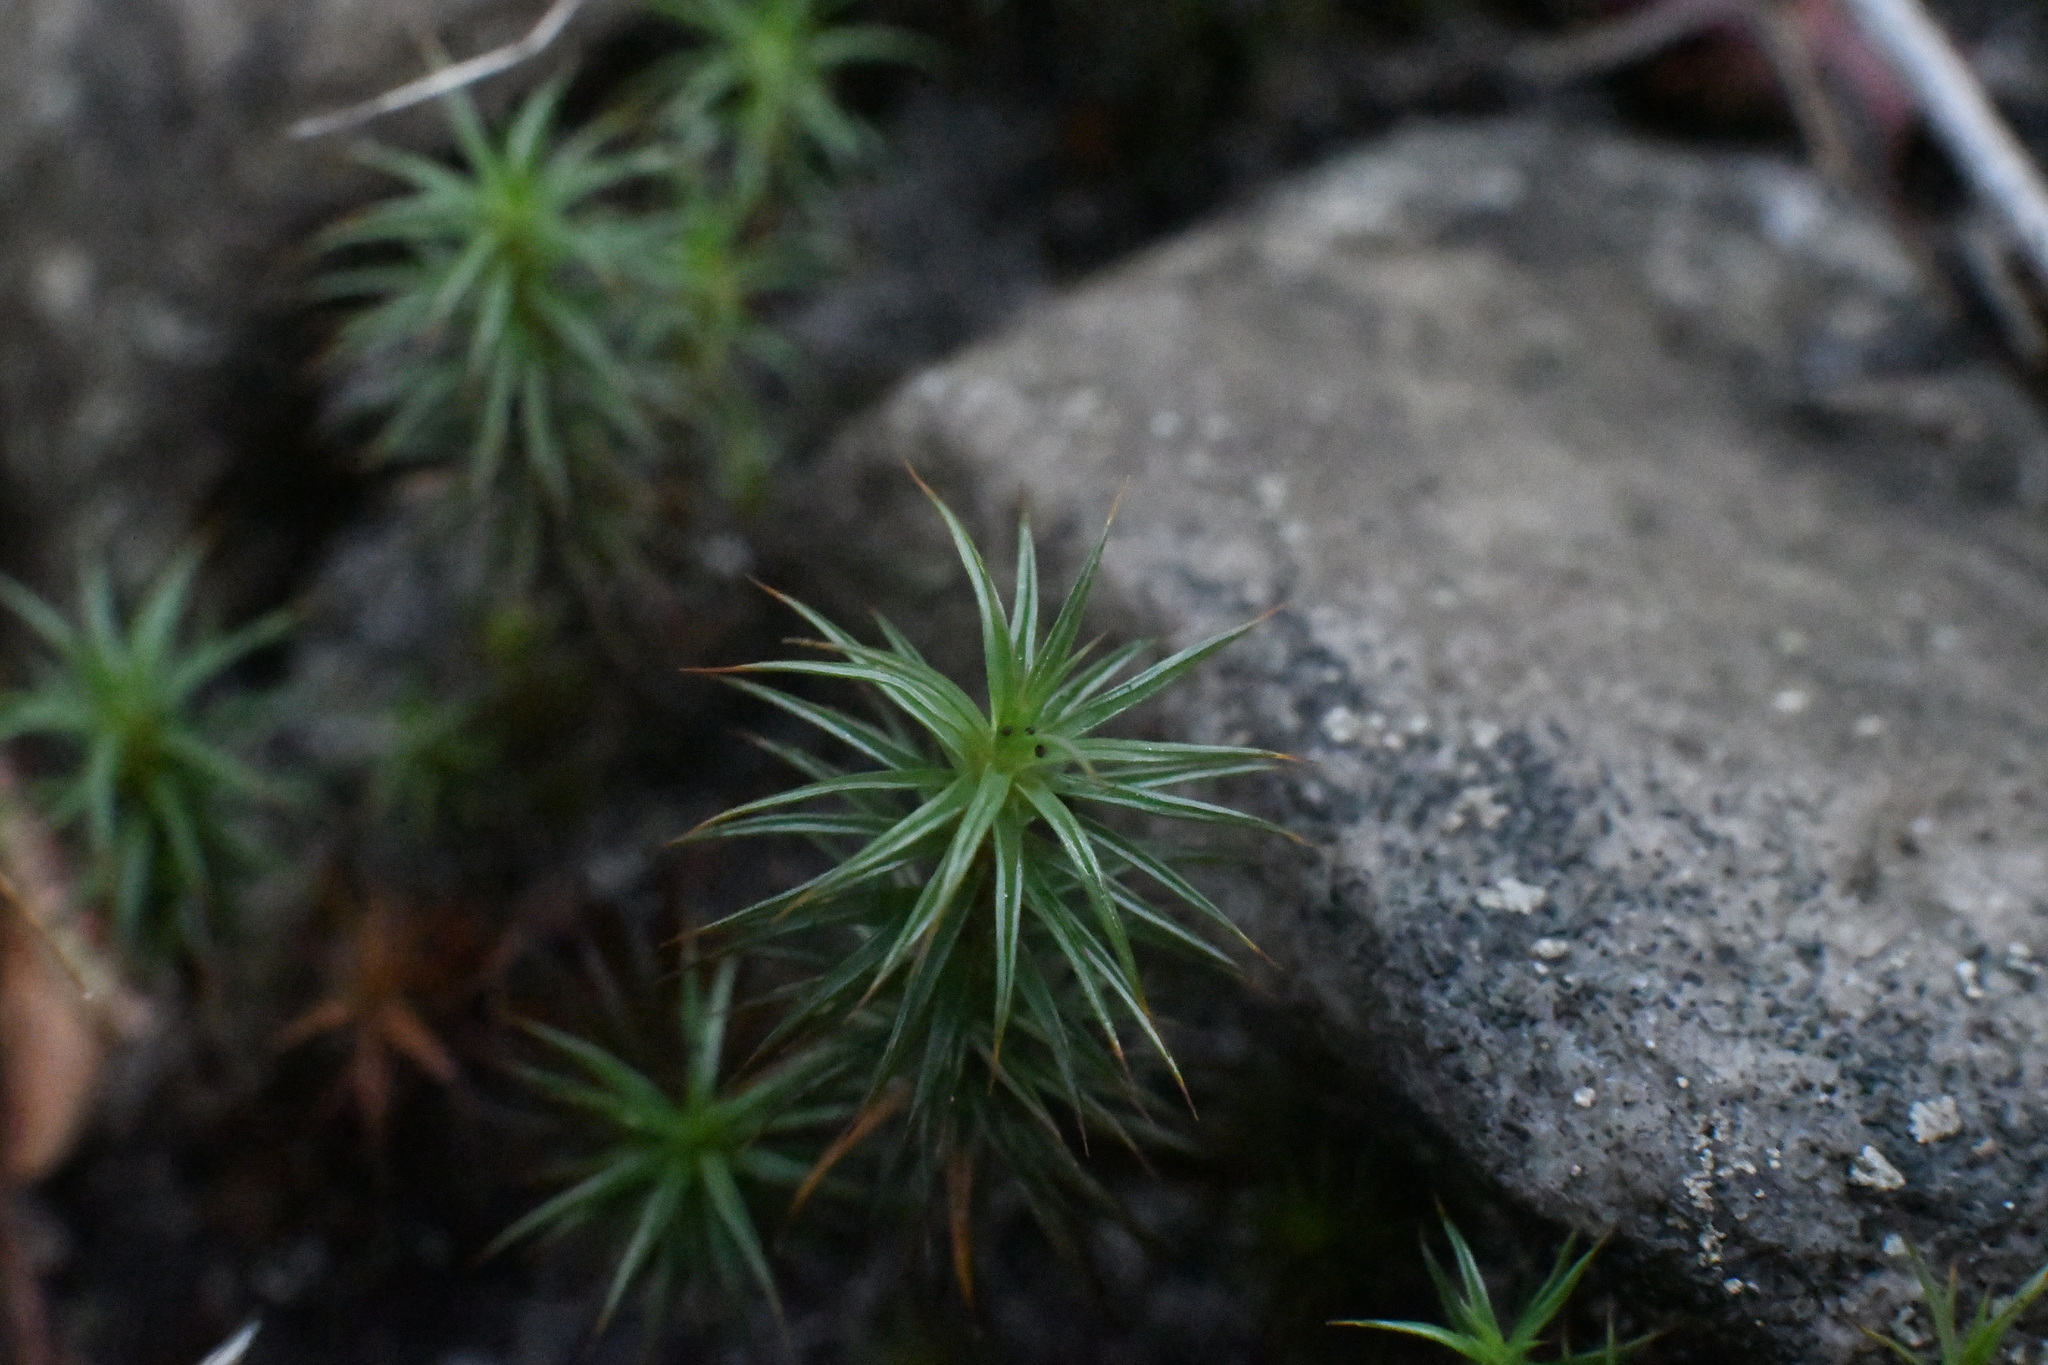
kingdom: Plantae
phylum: Bryophyta
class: Polytrichopsida
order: Polytrichales
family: Polytrichaceae
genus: Polytrichum
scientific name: Polytrichum juniperinum
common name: Juniper haircap moss
